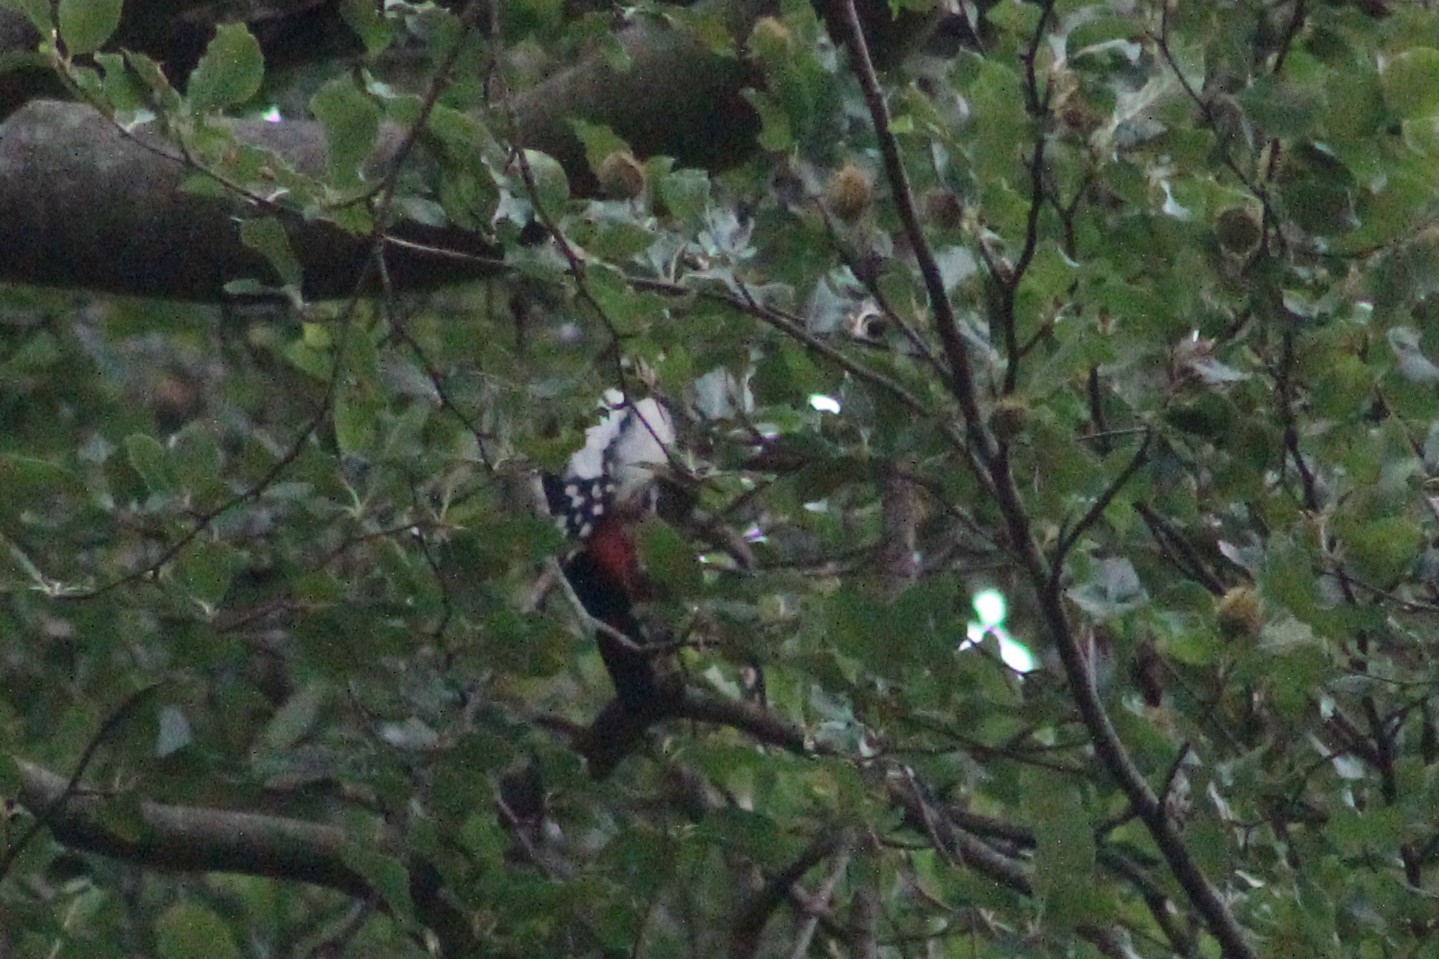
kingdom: Animalia
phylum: Chordata
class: Aves
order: Piciformes
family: Picidae
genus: Dendrocopos
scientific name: Dendrocopos major
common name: Great spotted woodpecker
